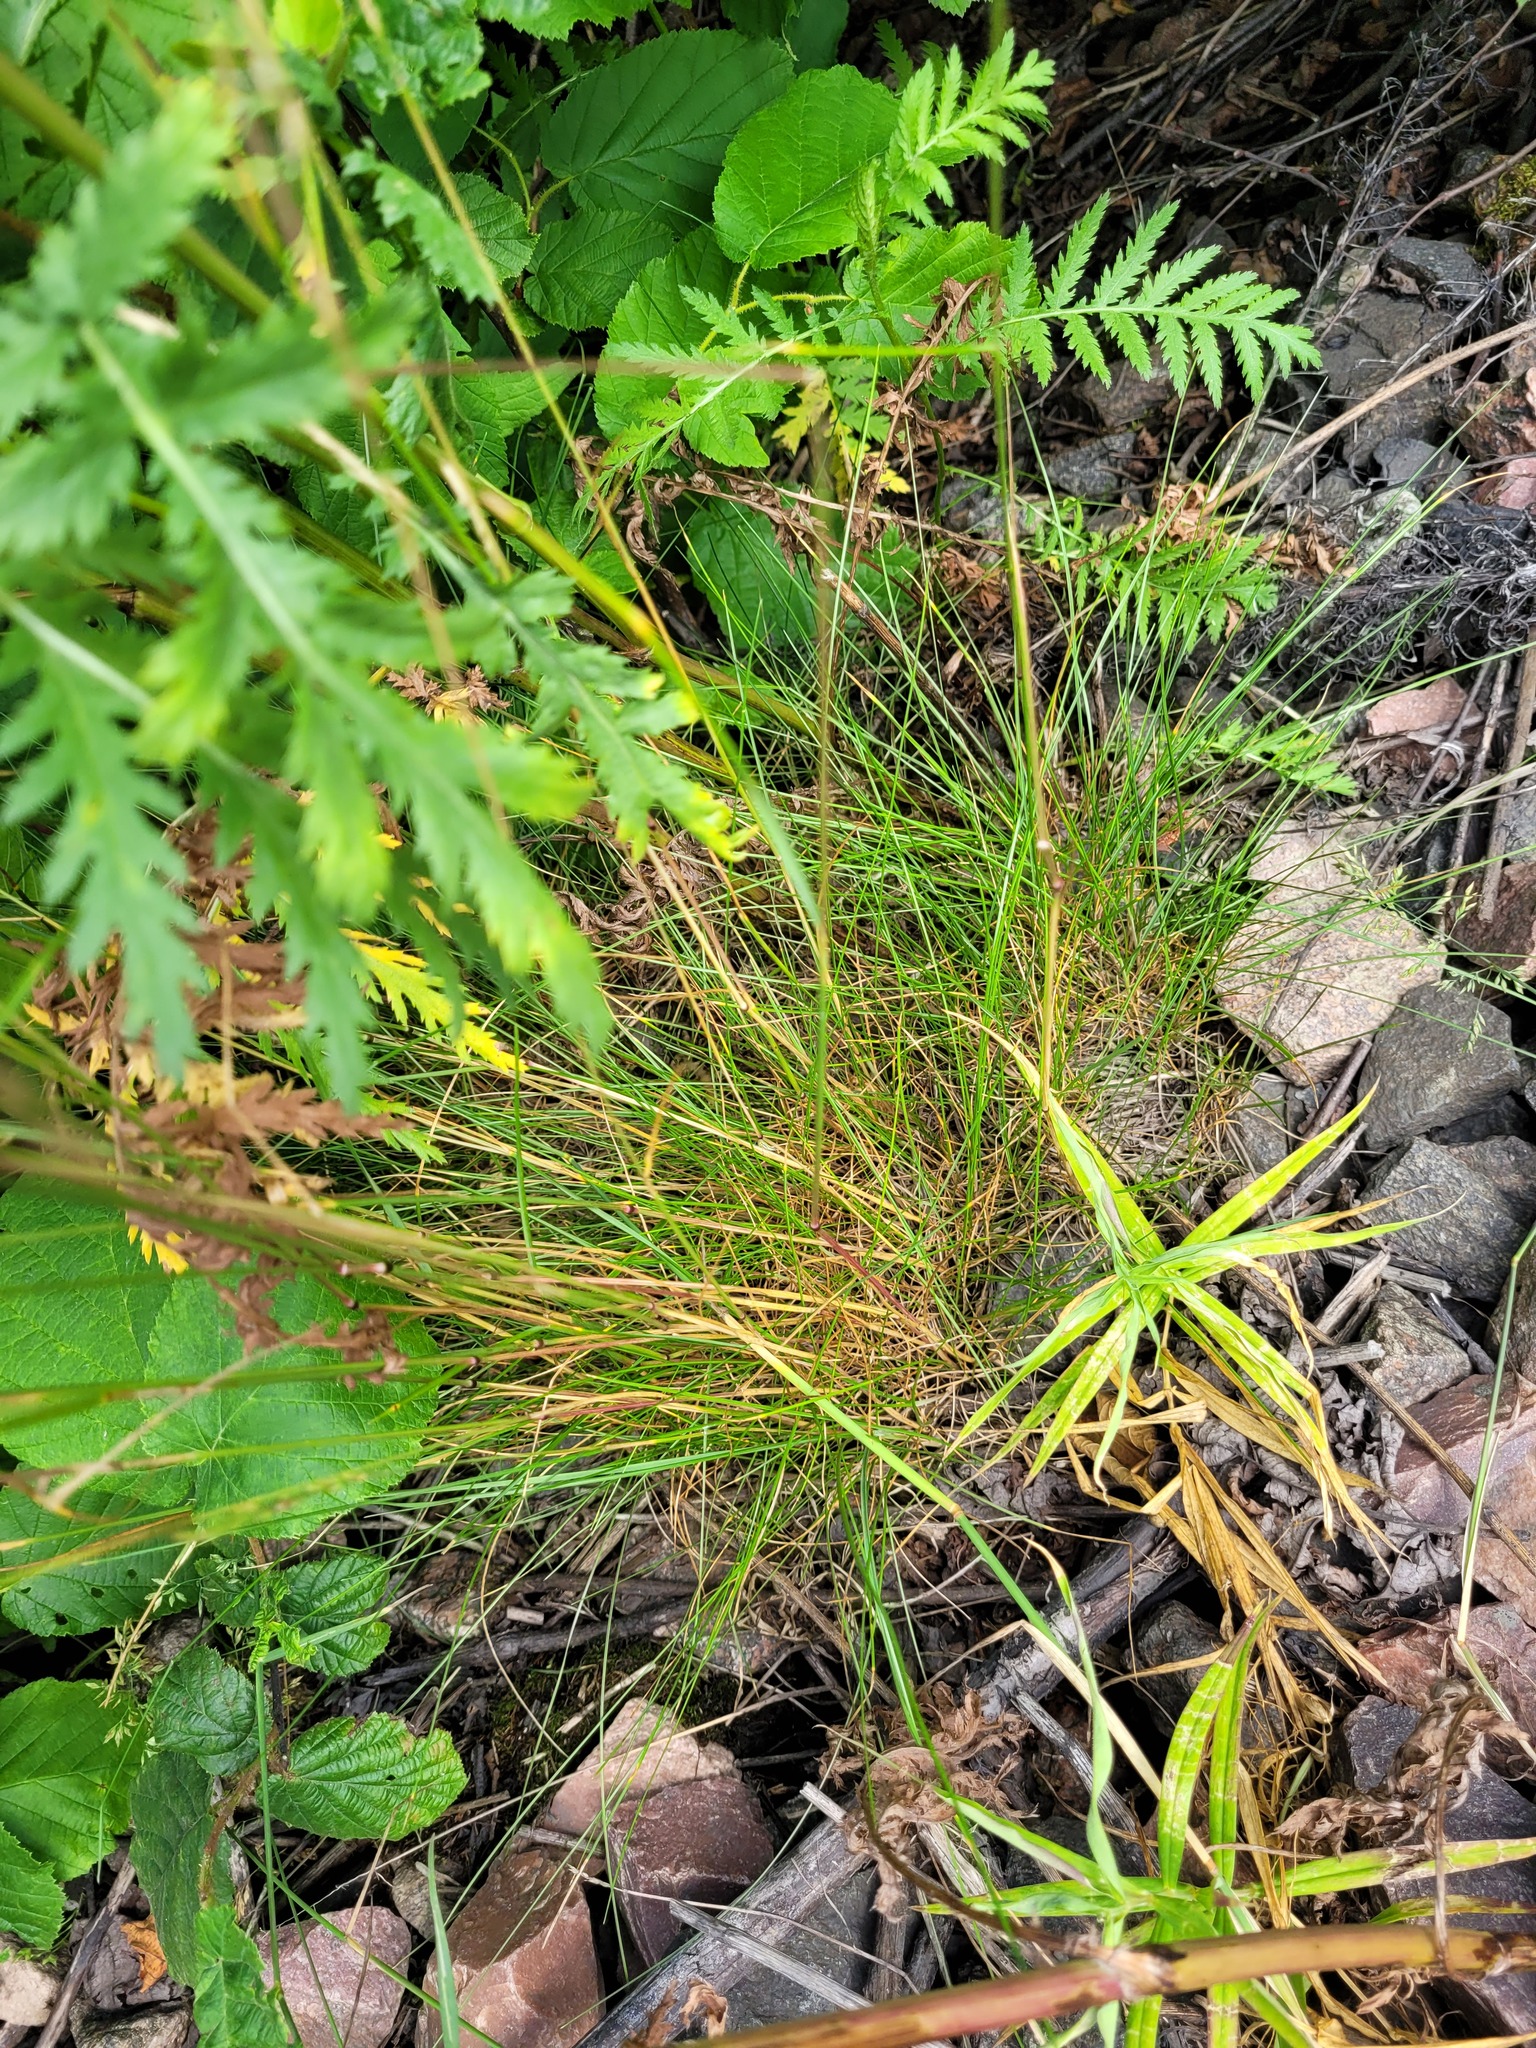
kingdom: Plantae
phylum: Tracheophyta
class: Liliopsida
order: Poales
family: Poaceae
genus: Festuca
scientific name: Festuca rubra
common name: Red fescue
